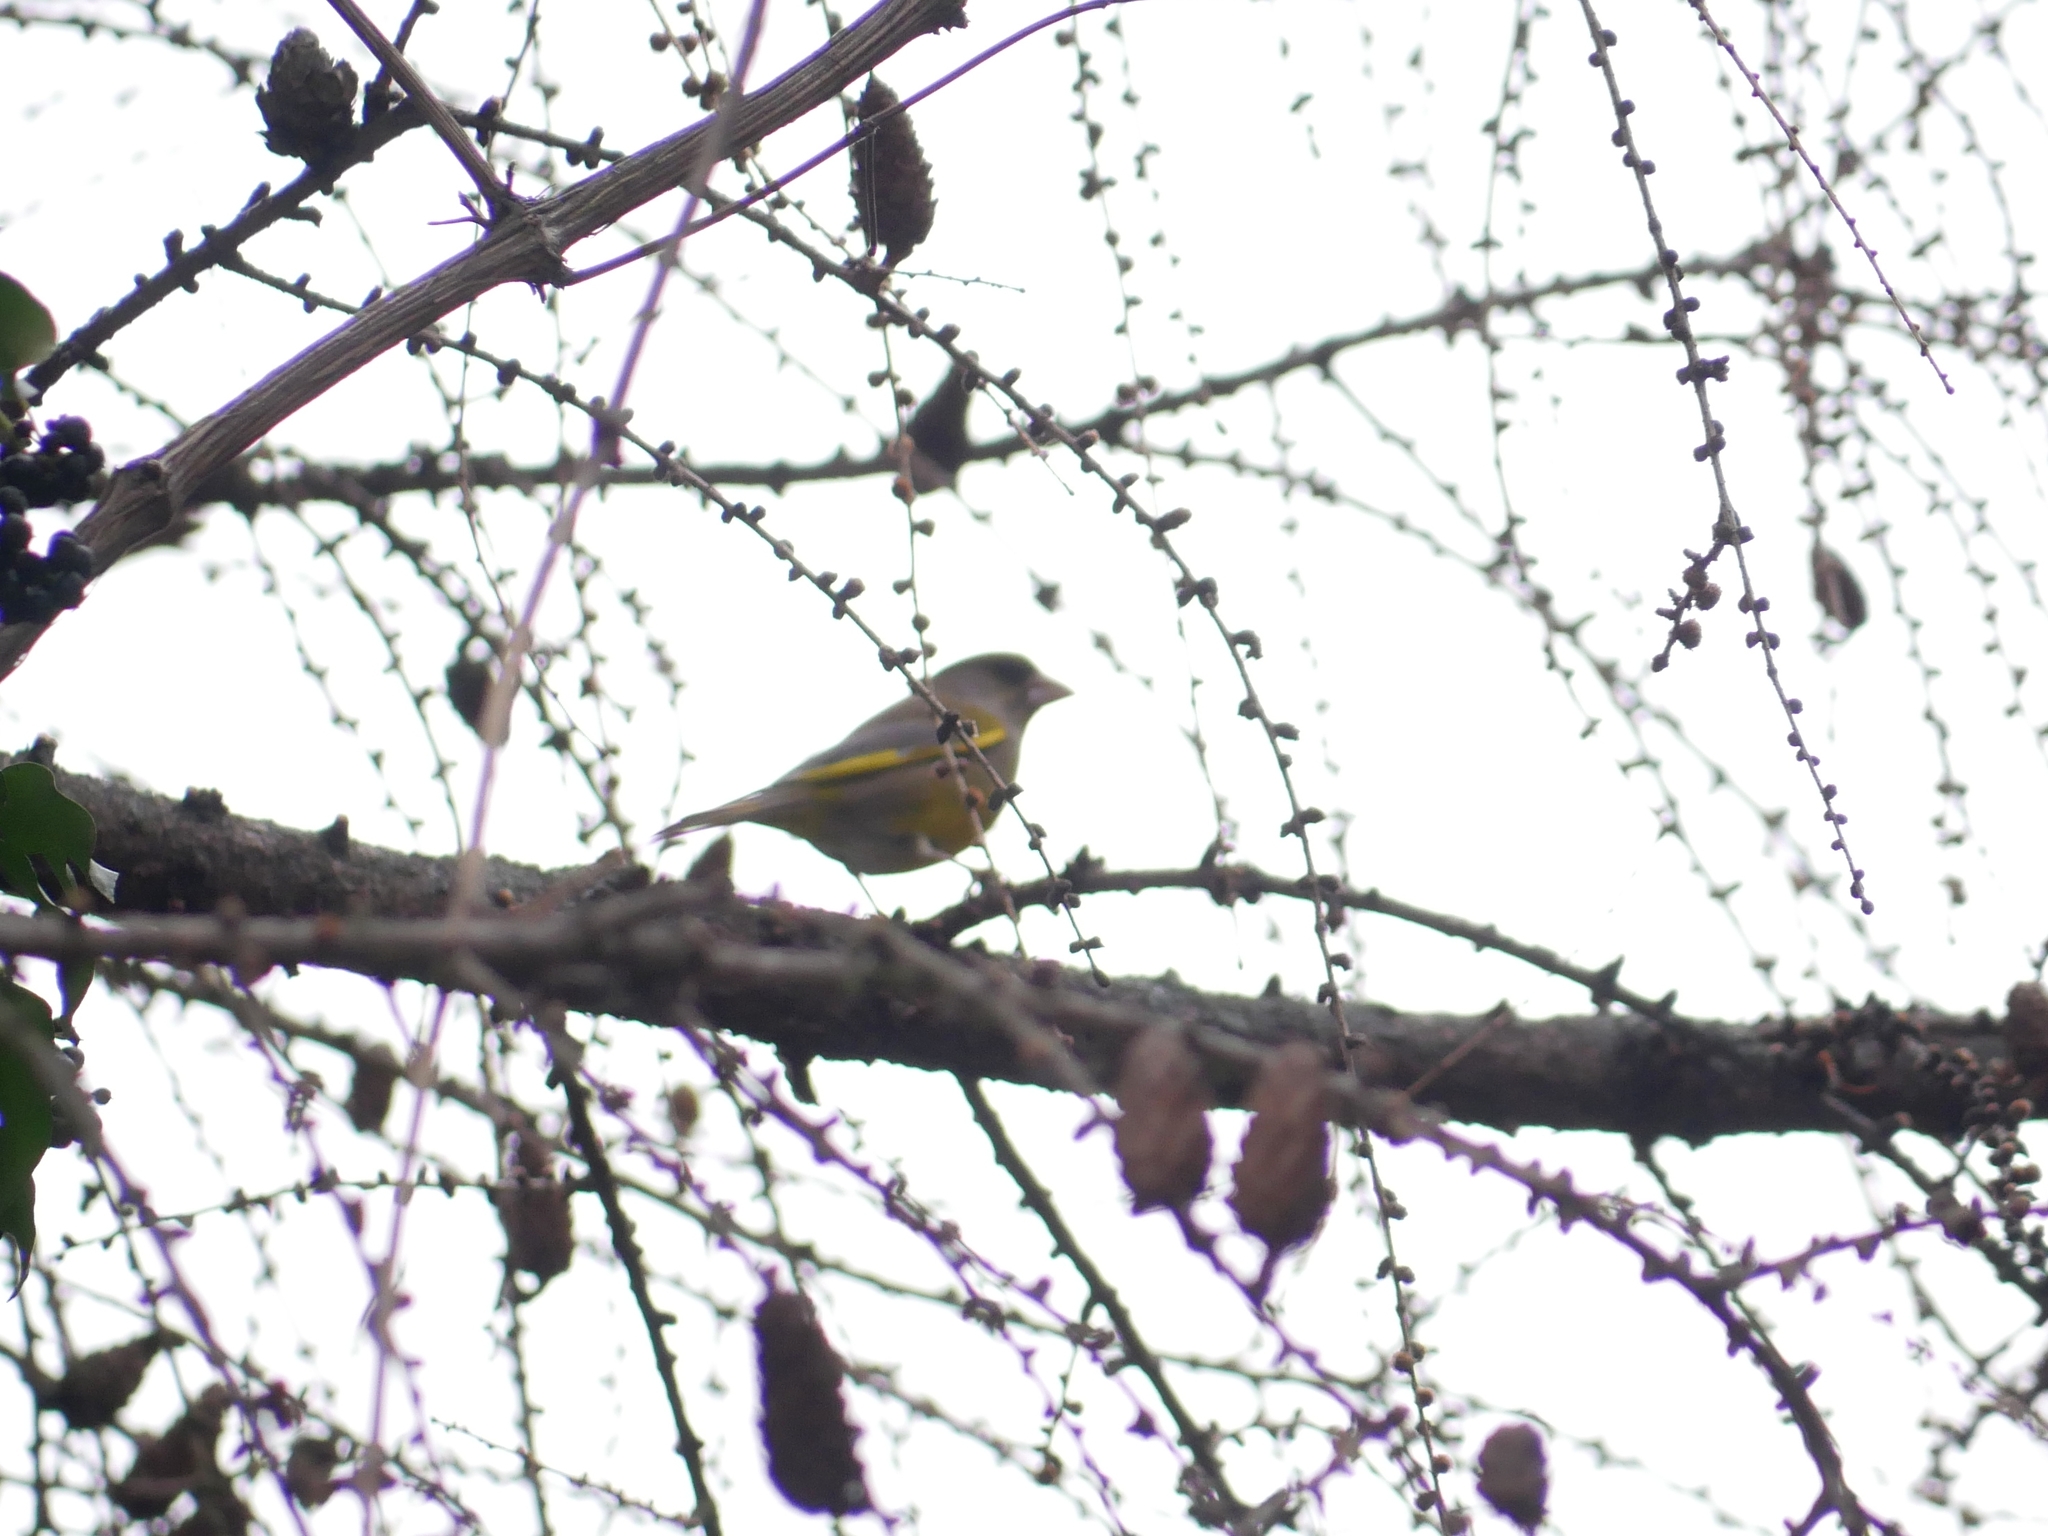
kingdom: Plantae
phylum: Tracheophyta
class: Liliopsida
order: Poales
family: Poaceae
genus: Chloris
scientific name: Chloris chloris
